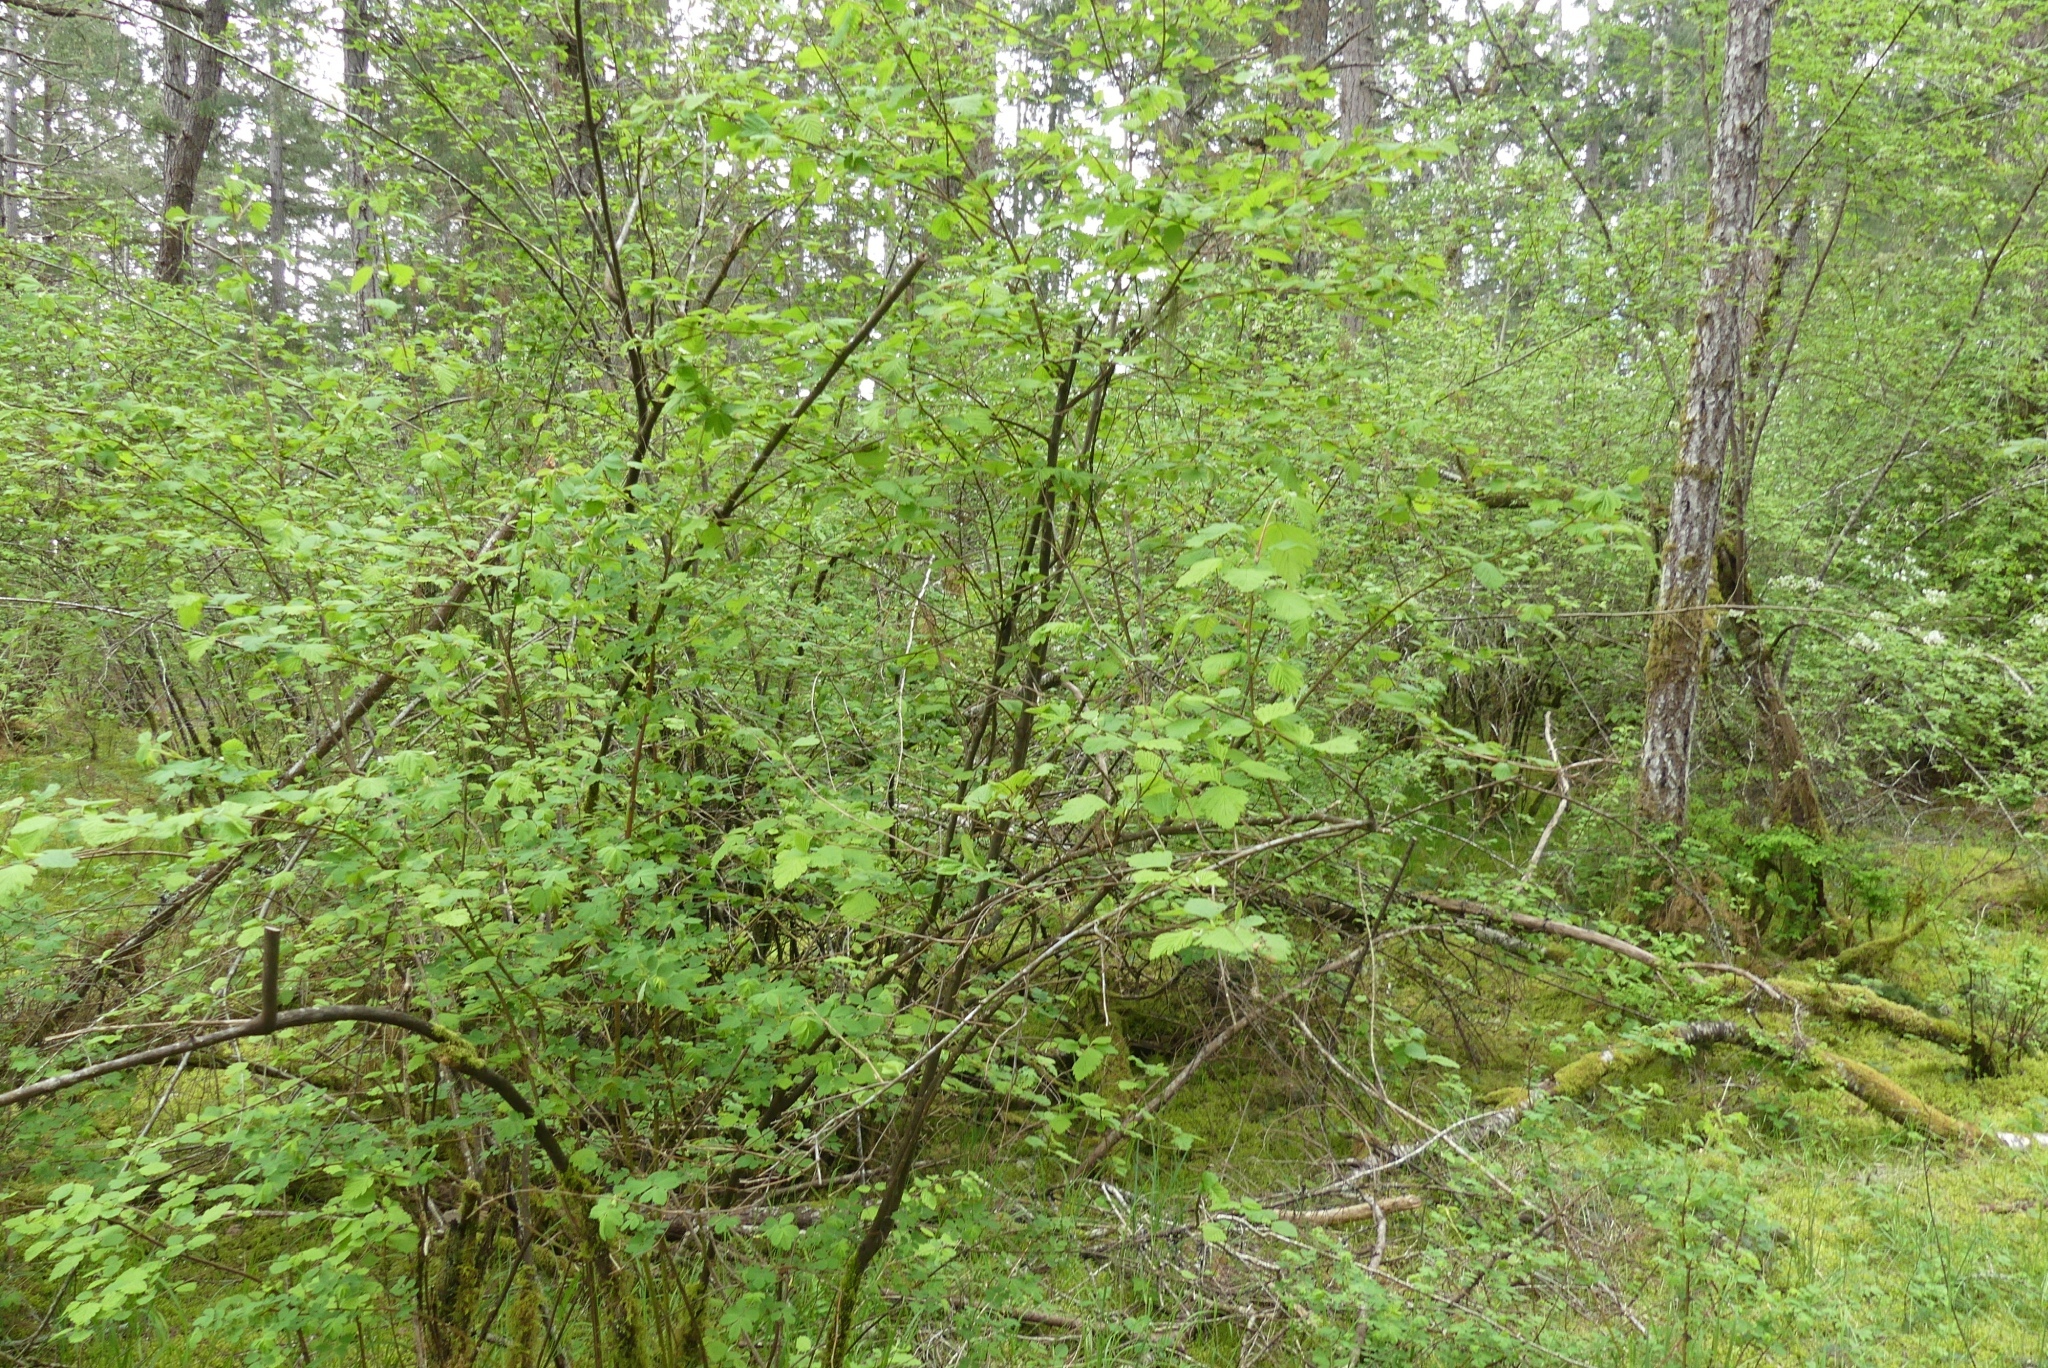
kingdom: Plantae
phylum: Tracheophyta
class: Magnoliopsida
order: Rosales
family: Rosaceae
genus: Holodiscus
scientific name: Holodiscus discolor
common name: Oceanspray
